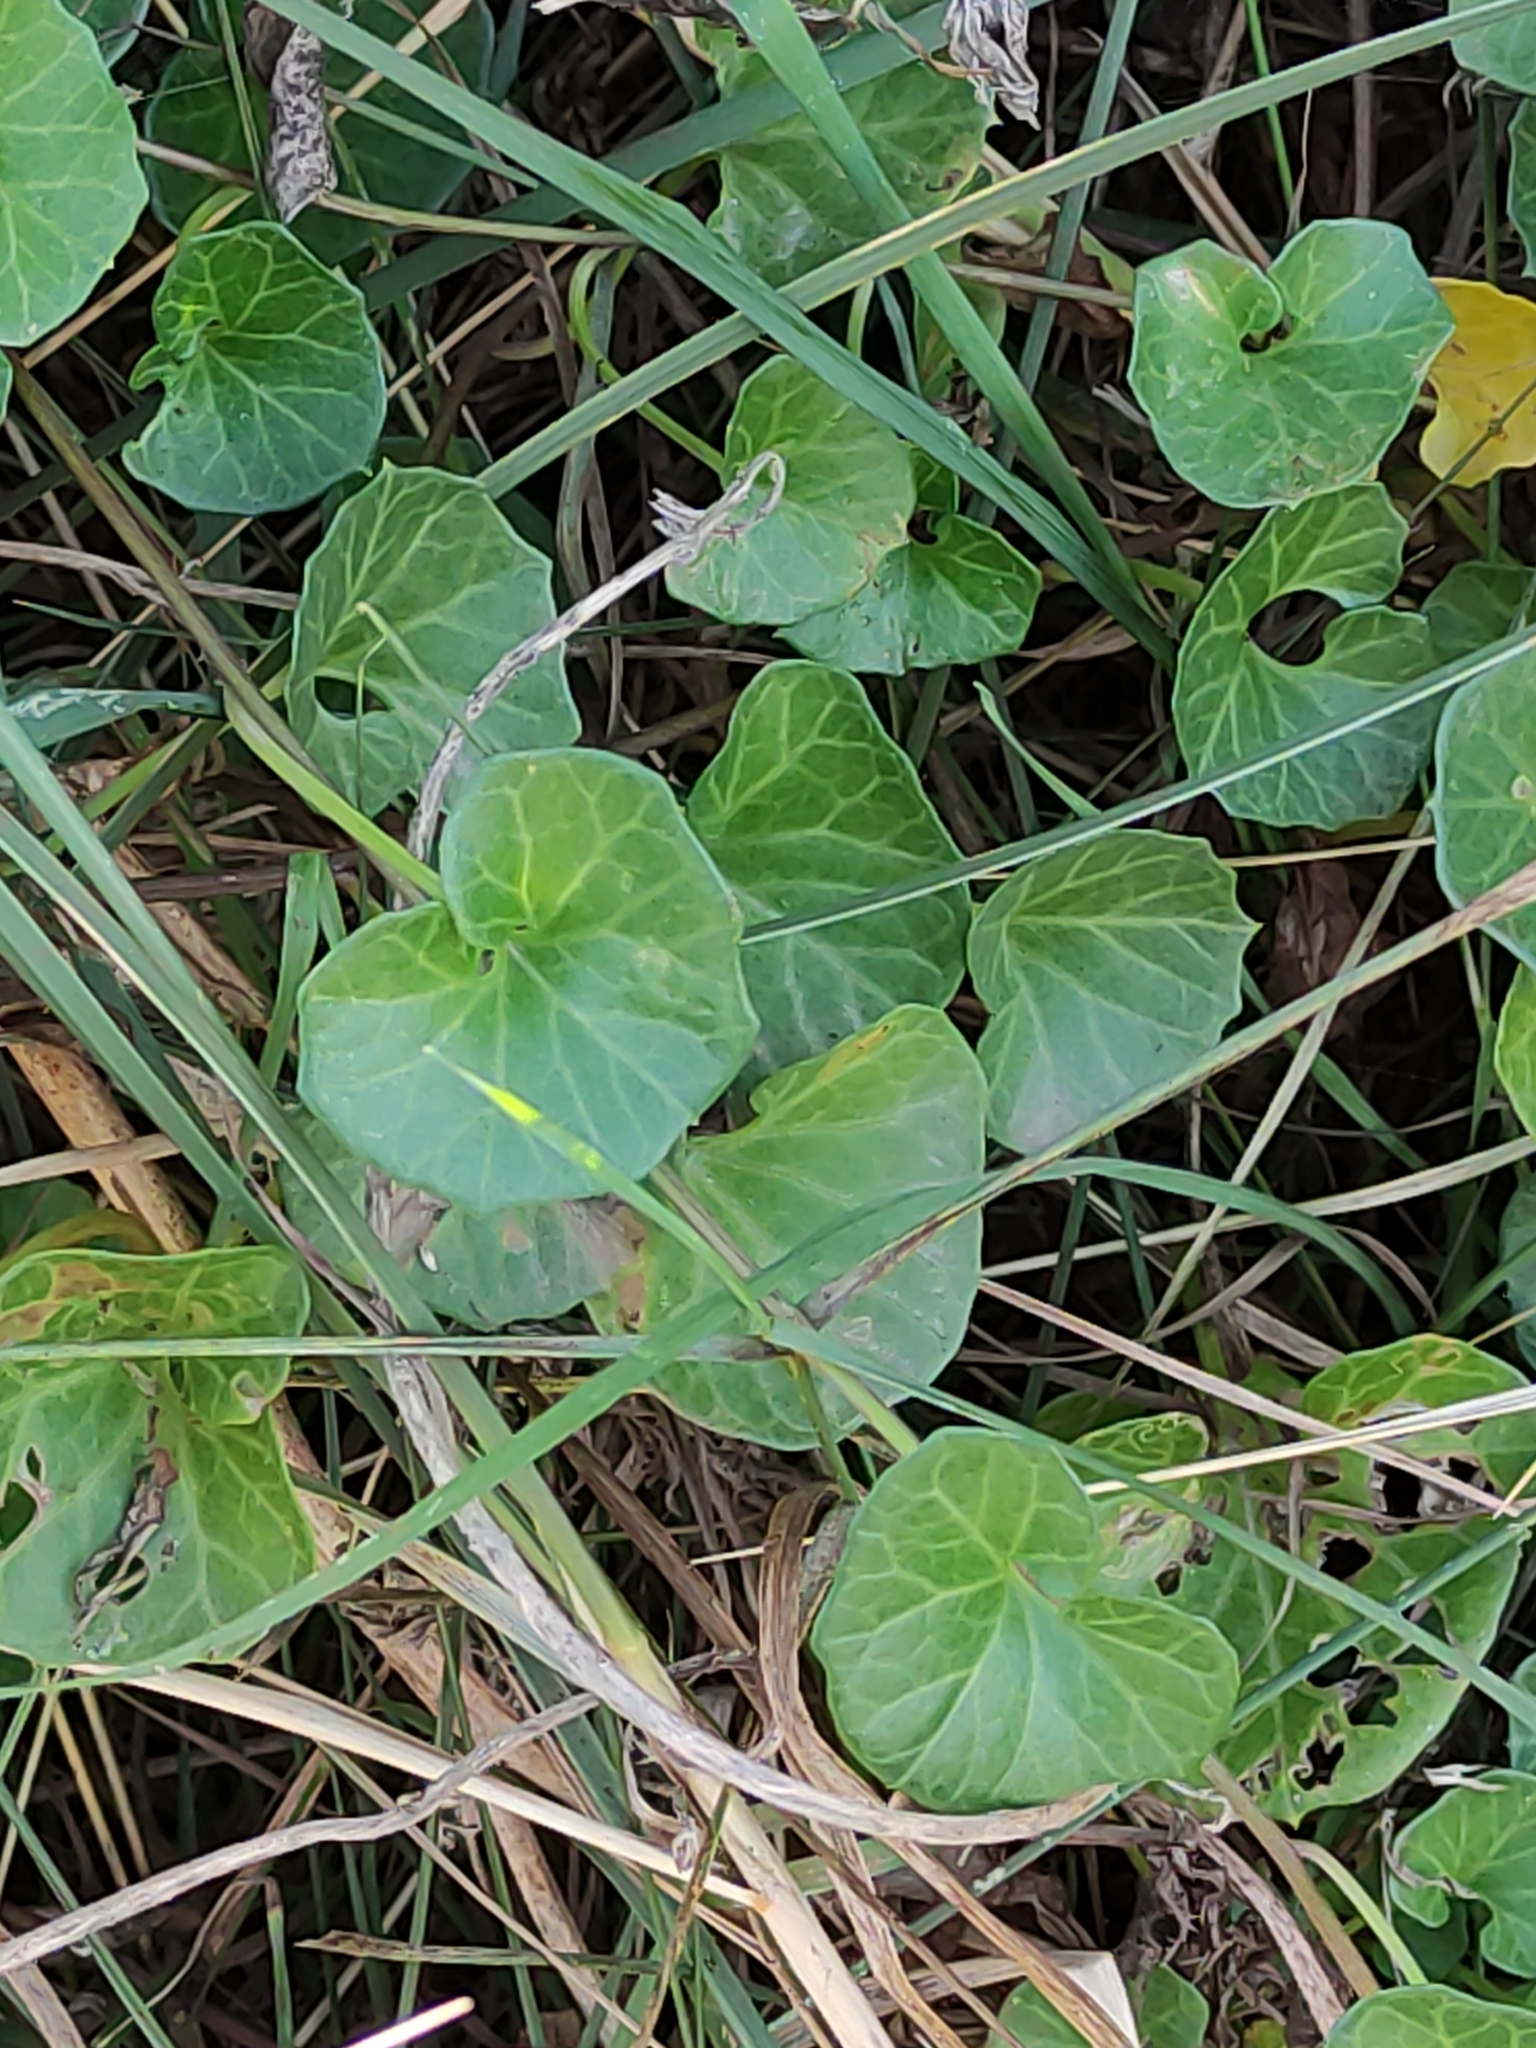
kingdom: Plantae
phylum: Tracheophyta
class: Magnoliopsida
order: Solanales
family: Convolvulaceae
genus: Calystegia
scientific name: Calystegia soldanella
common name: Sea bindweed
